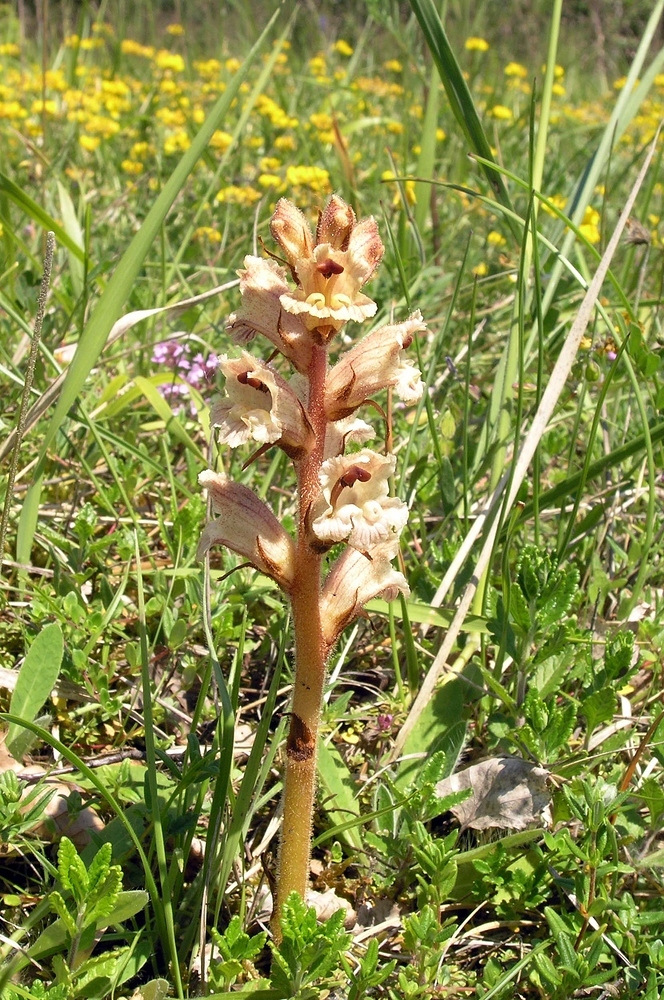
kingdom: Plantae
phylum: Tracheophyta
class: Magnoliopsida
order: Lamiales
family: Orobanchaceae
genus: Orobanche
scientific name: Orobanche alba
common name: Thyme broomrape
